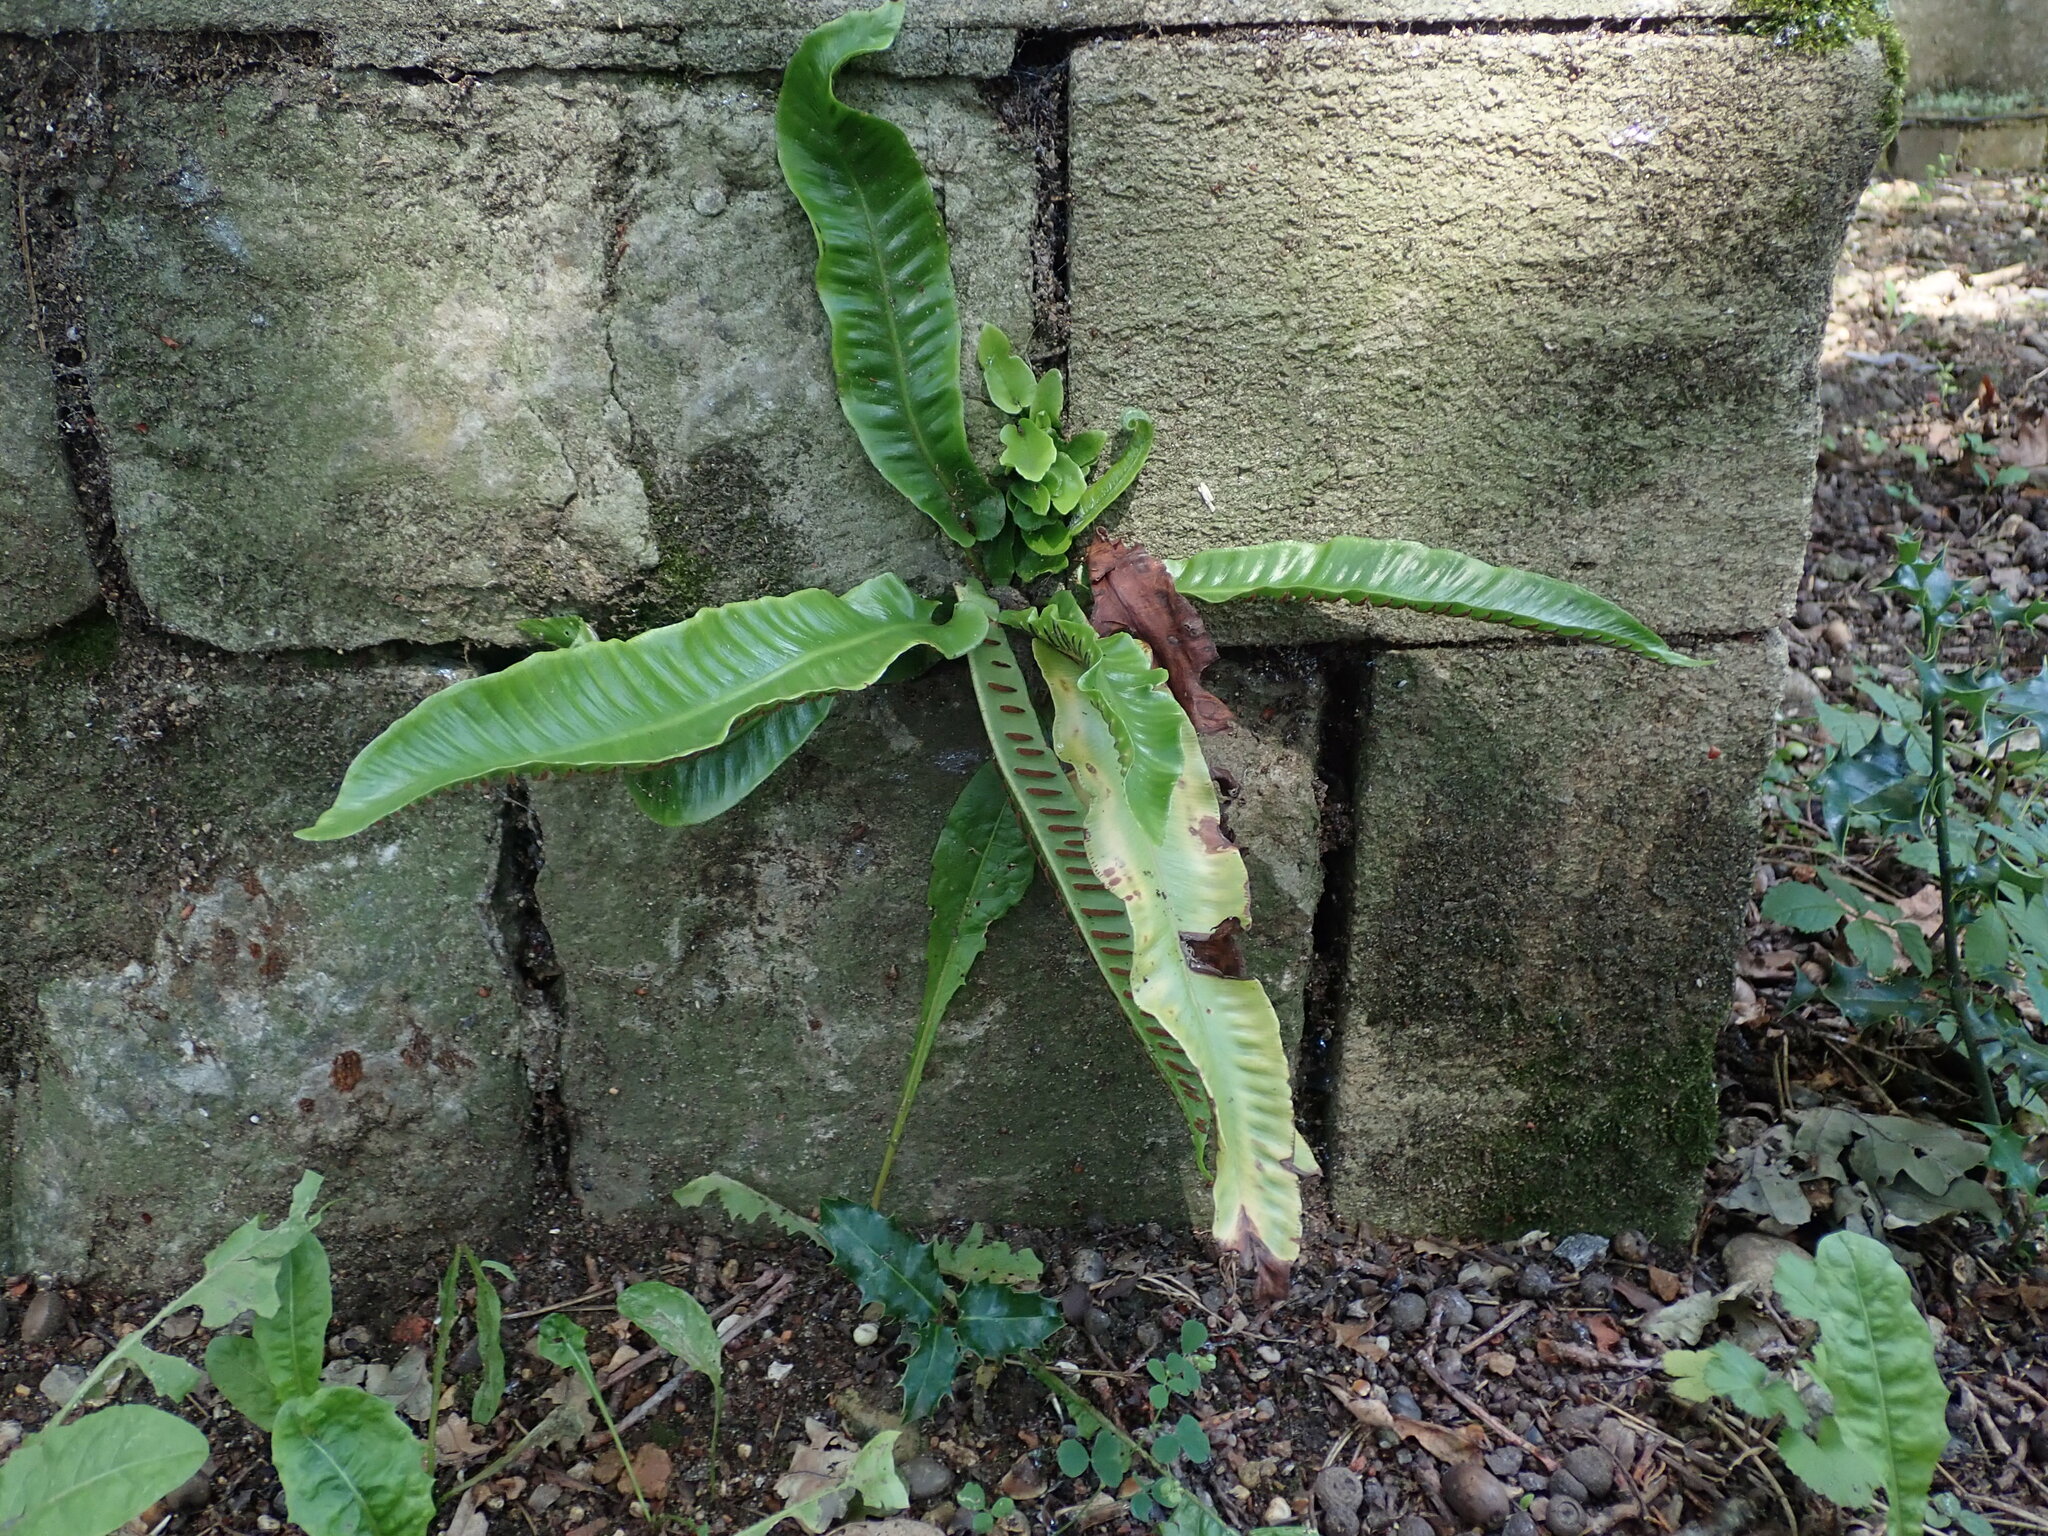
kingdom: Plantae
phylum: Tracheophyta
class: Polypodiopsida
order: Polypodiales
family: Aspleniaceae
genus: Asplenium
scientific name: Asplenium scolopendrium
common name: Hart's-tongue fern
